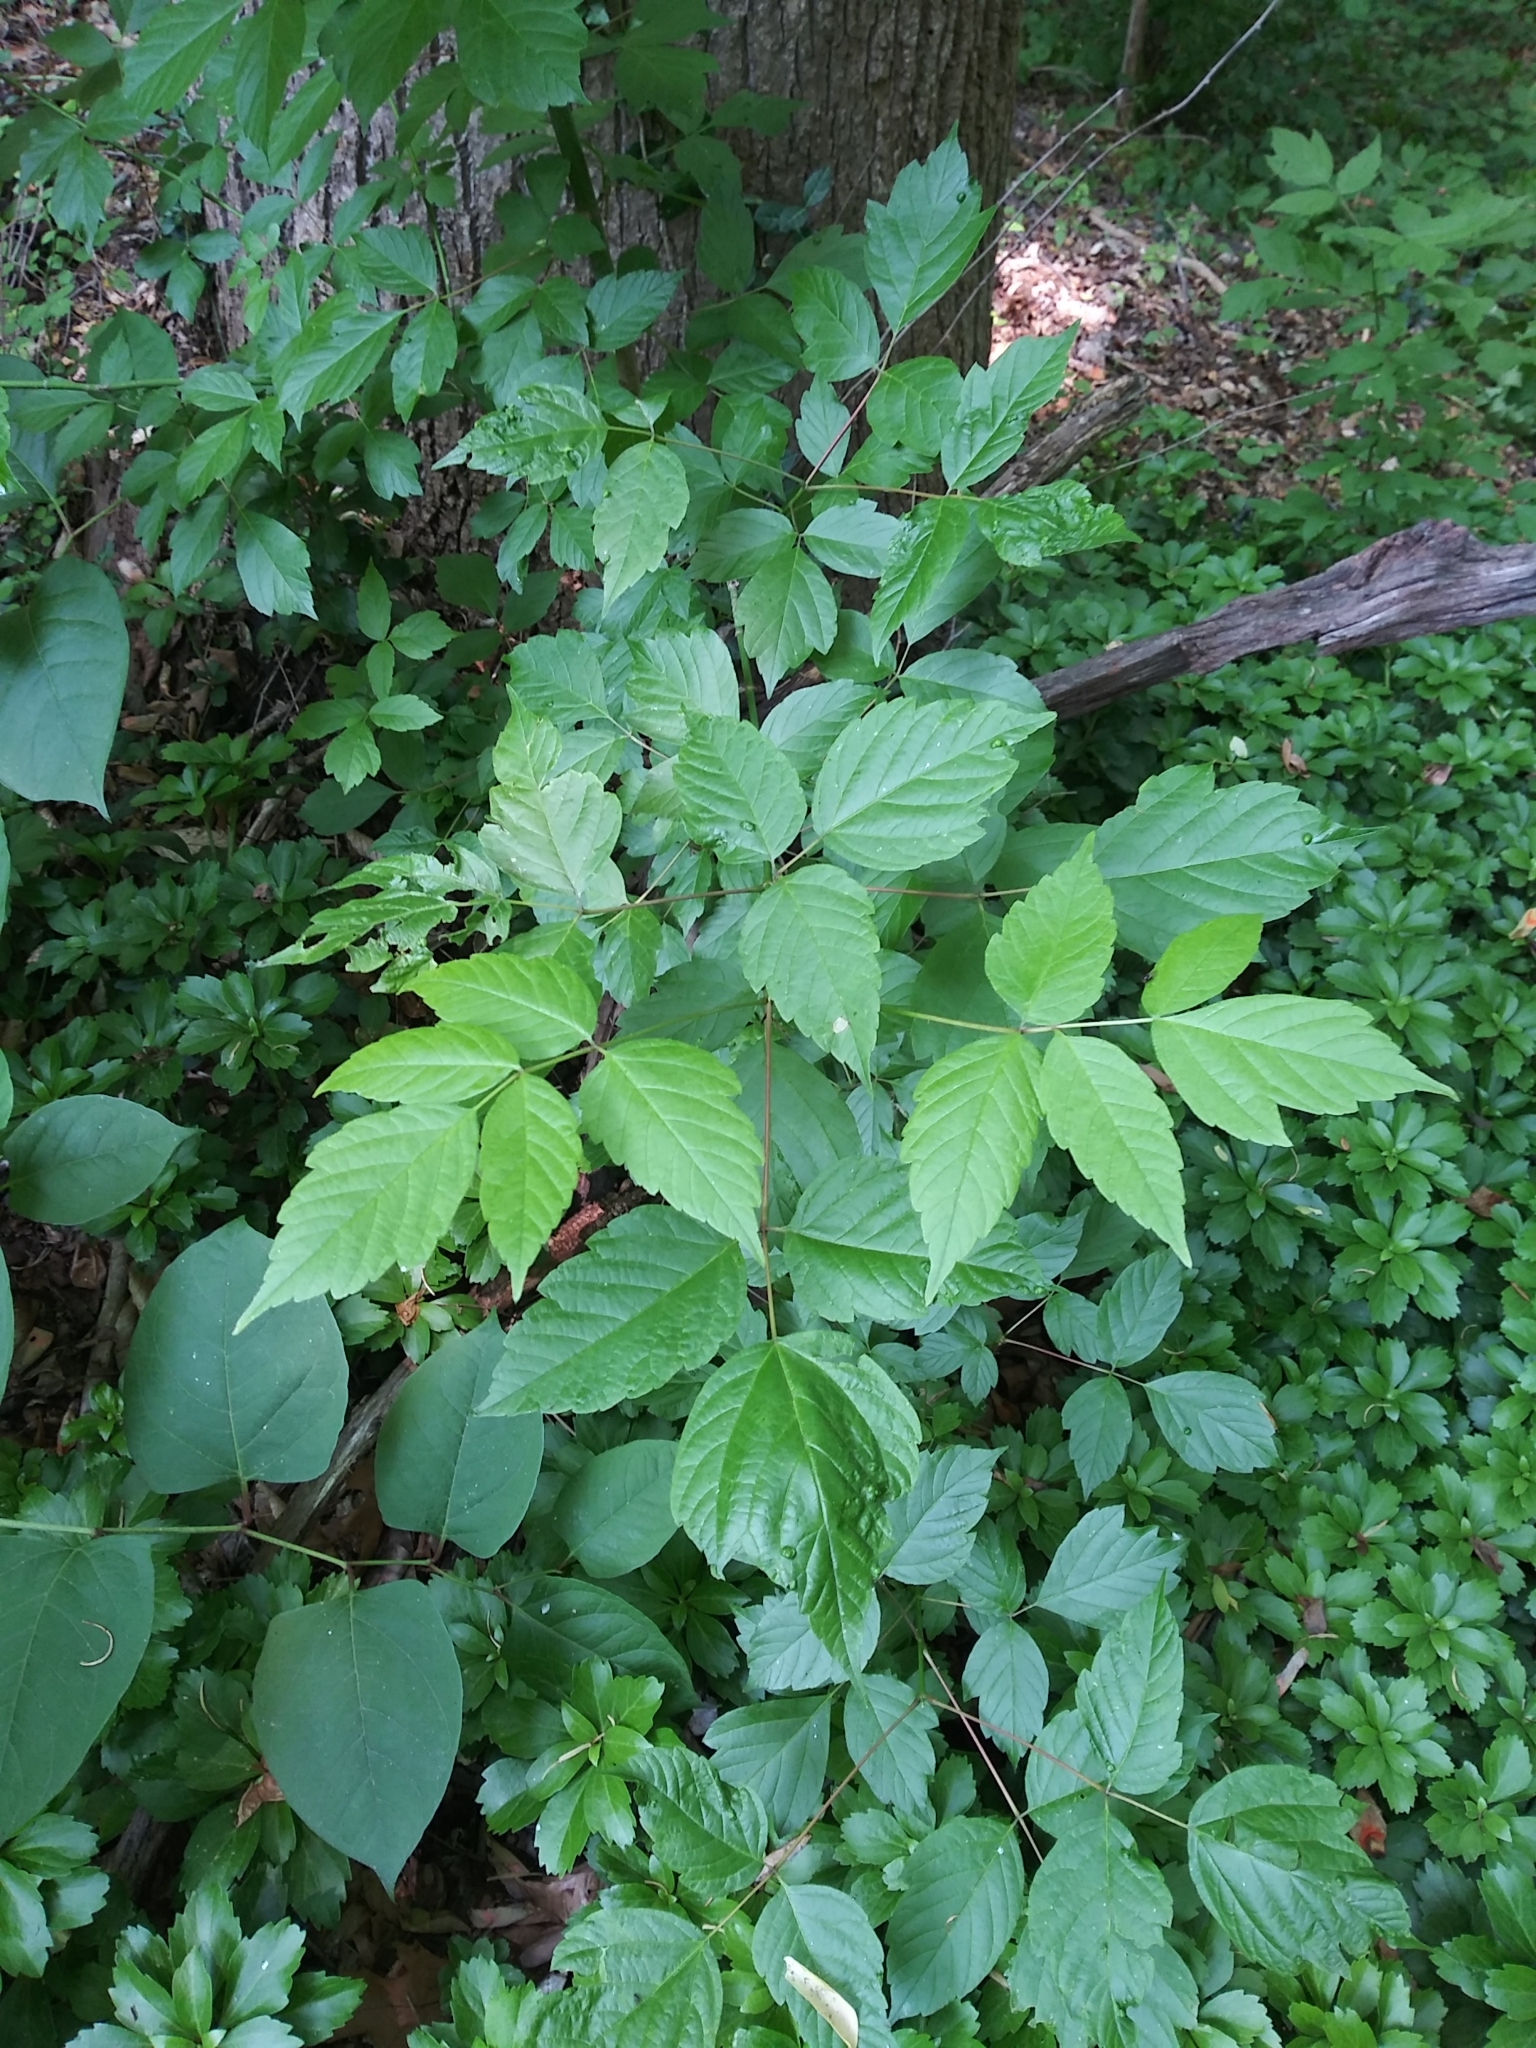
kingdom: Plantae
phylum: Tracheophyta
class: Magnoliopsida
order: Sapindales
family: Sapindaceae
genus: Acer
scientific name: Acer negundo
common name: Ashleaf maple
